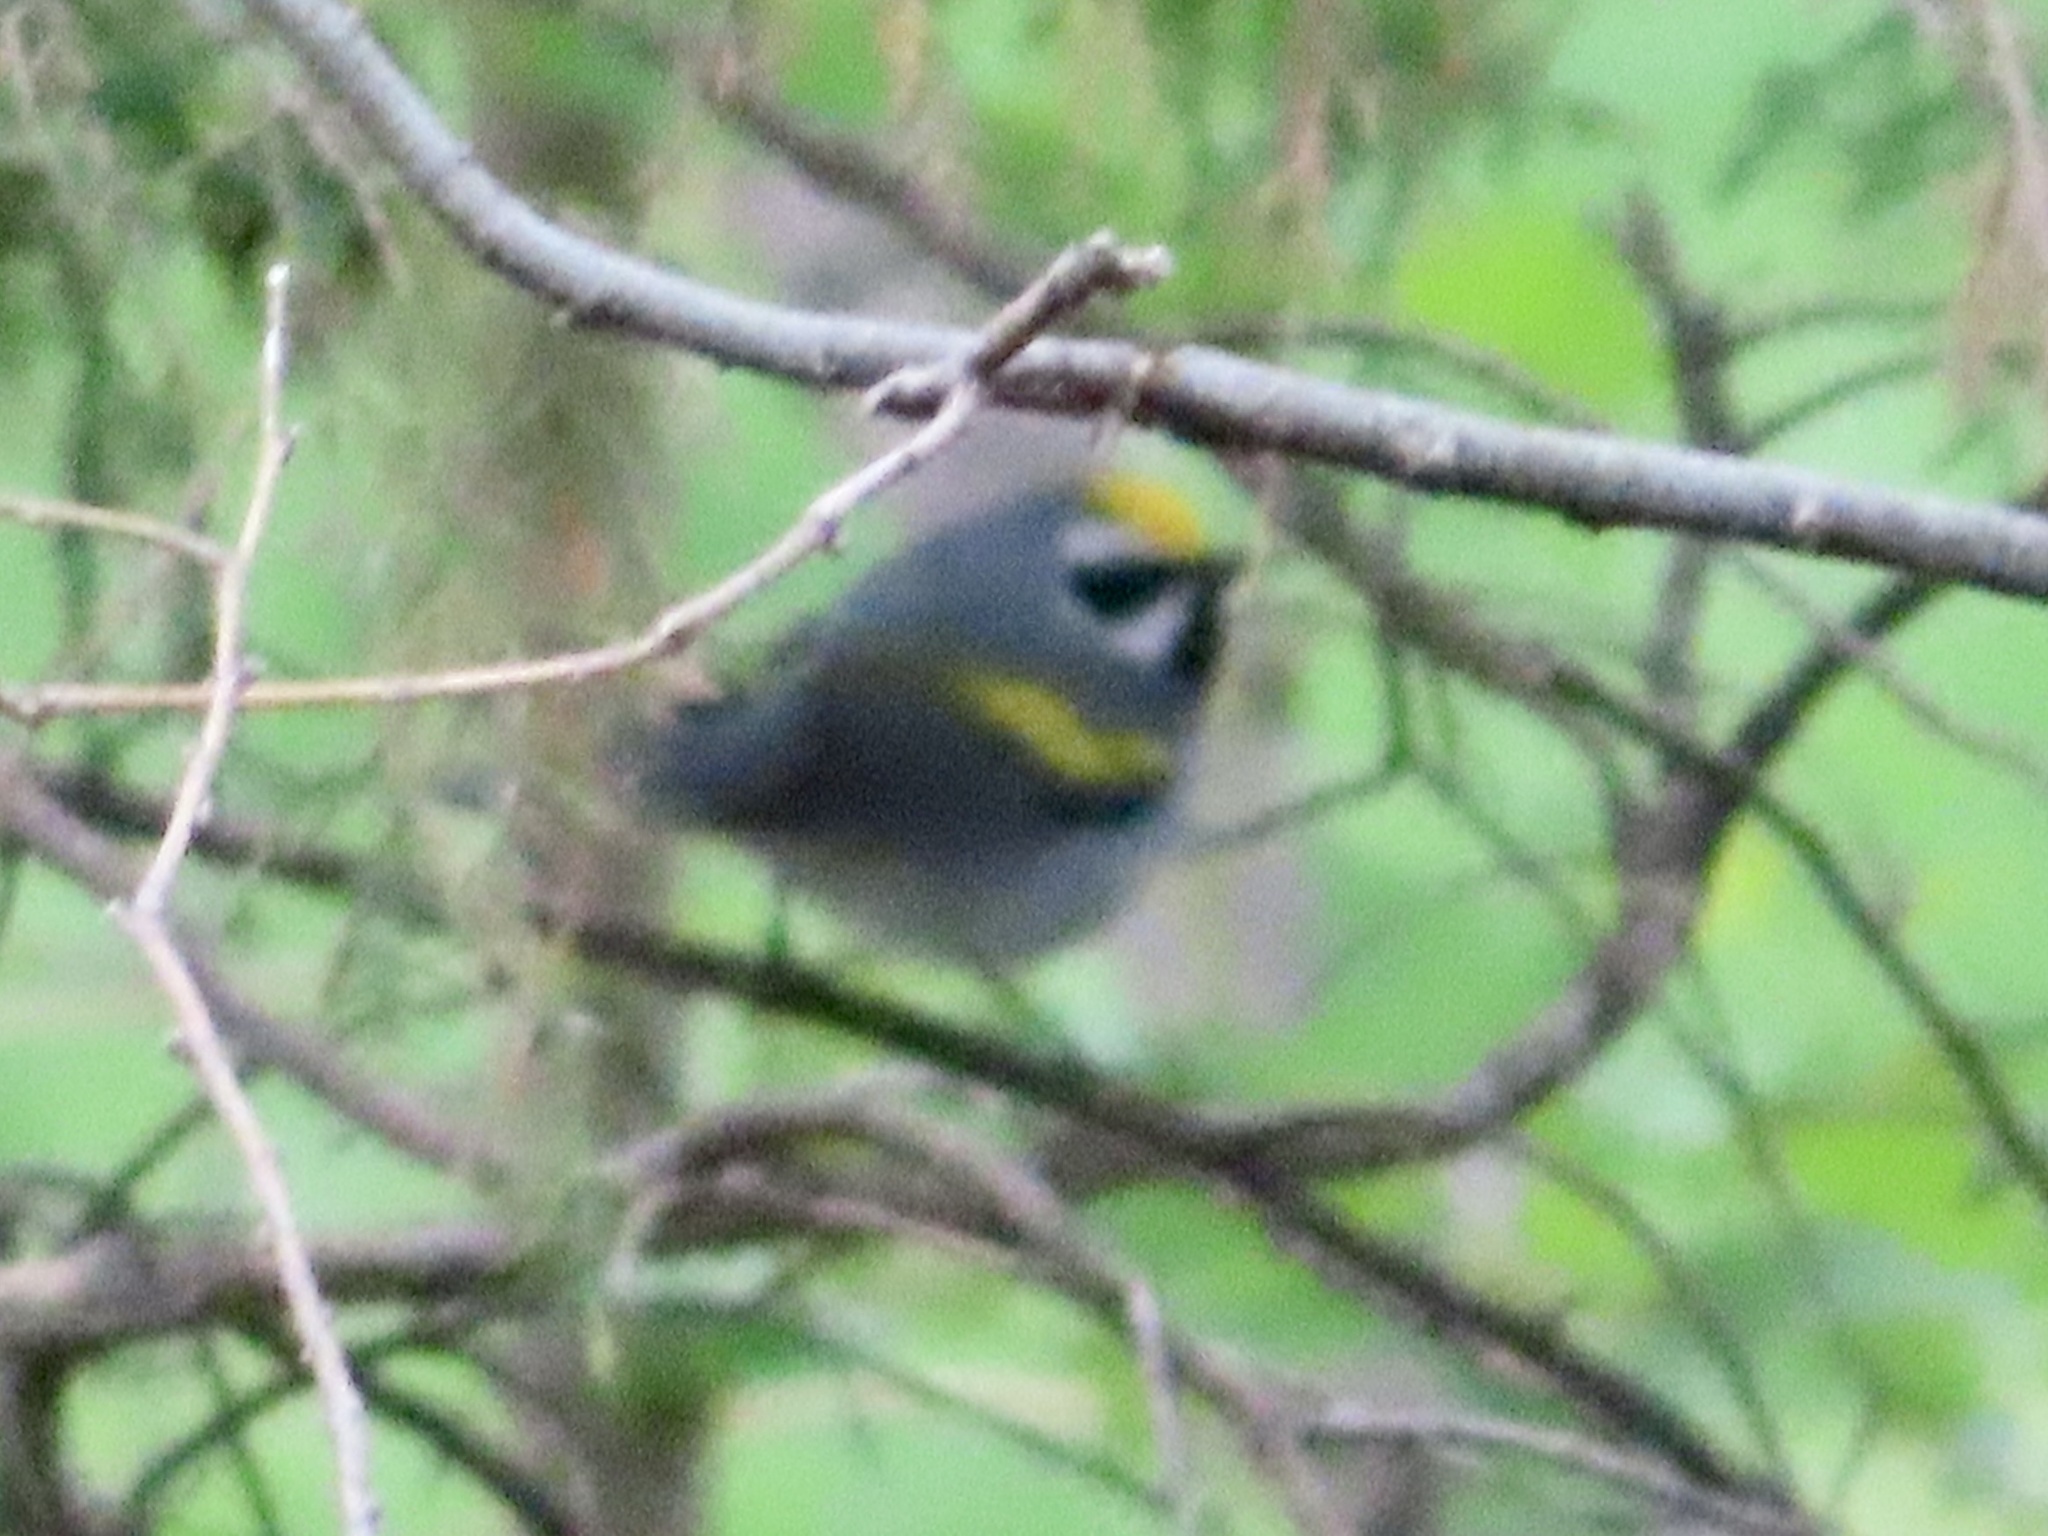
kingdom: Animalia
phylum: Chordata
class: Aves
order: Passeriformes
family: Parulidae
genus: Vermivora
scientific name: Vermivora chrysoptera
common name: Golden-winged warbler
